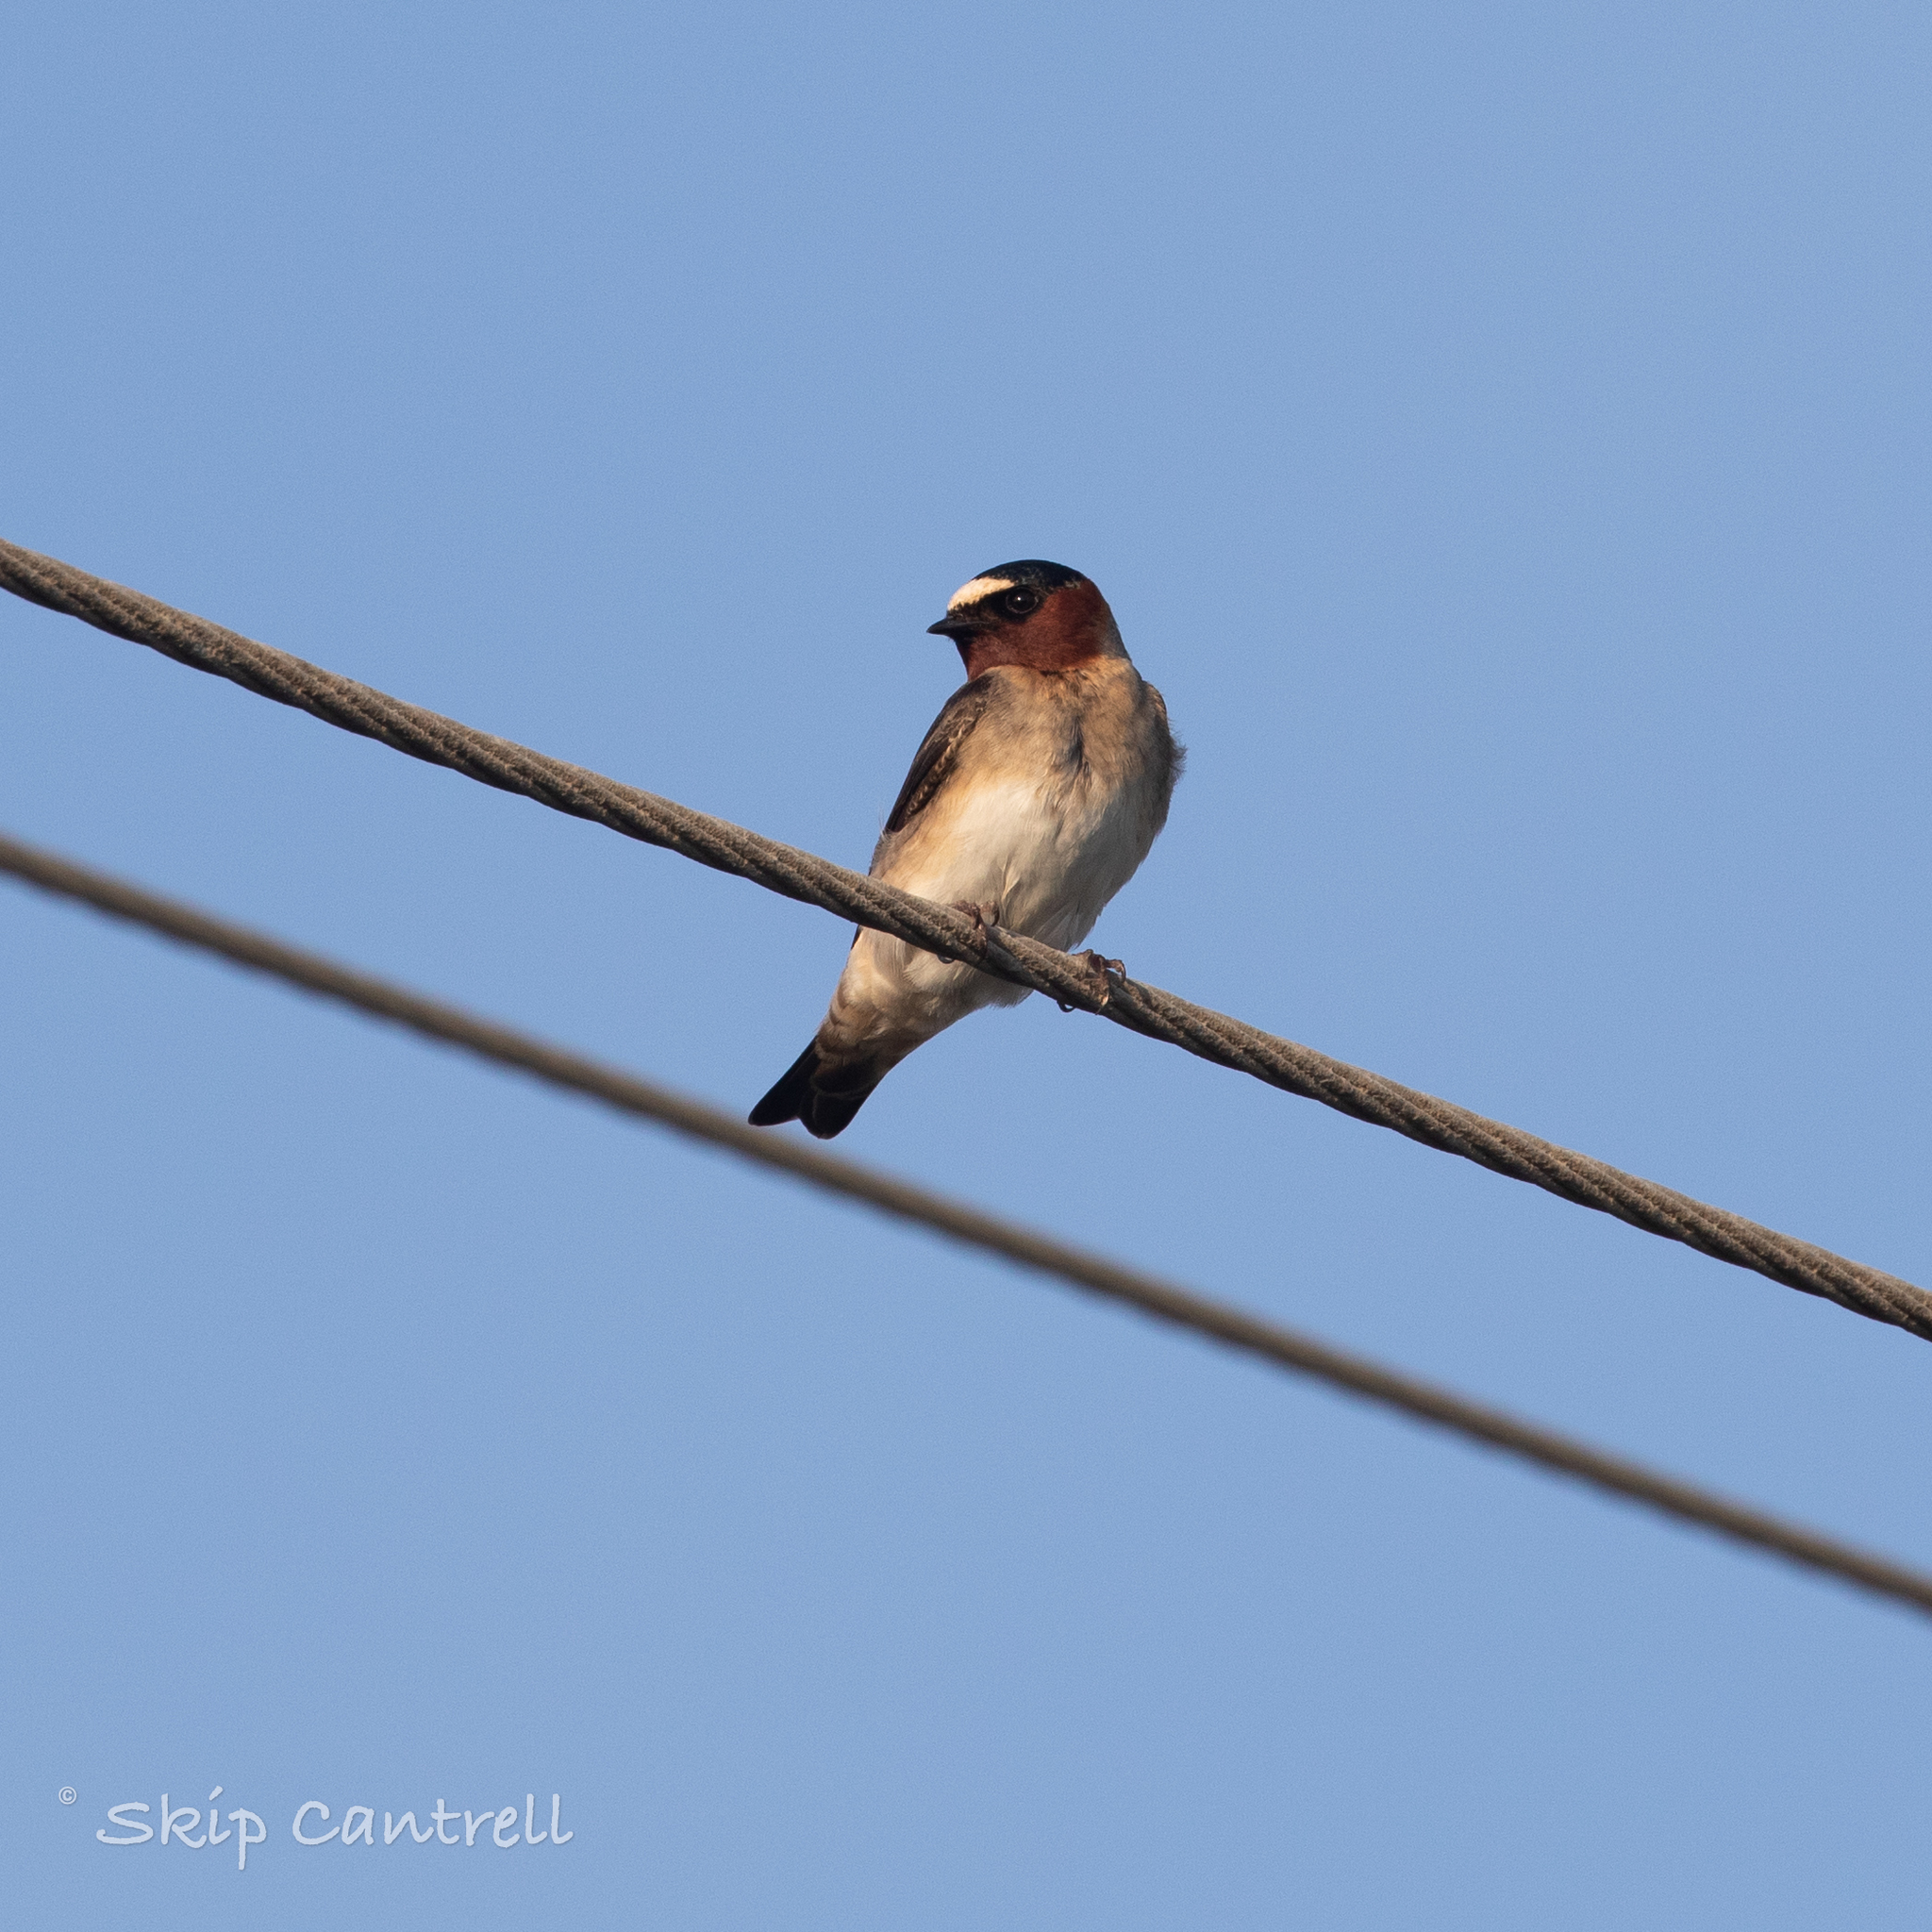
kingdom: Animalia
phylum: Chordata
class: Aves
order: Passeriformes
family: Hirundinidae
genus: Petrochelidon
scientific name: Petrochelidon pyrrhonota
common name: American cliff swallow
